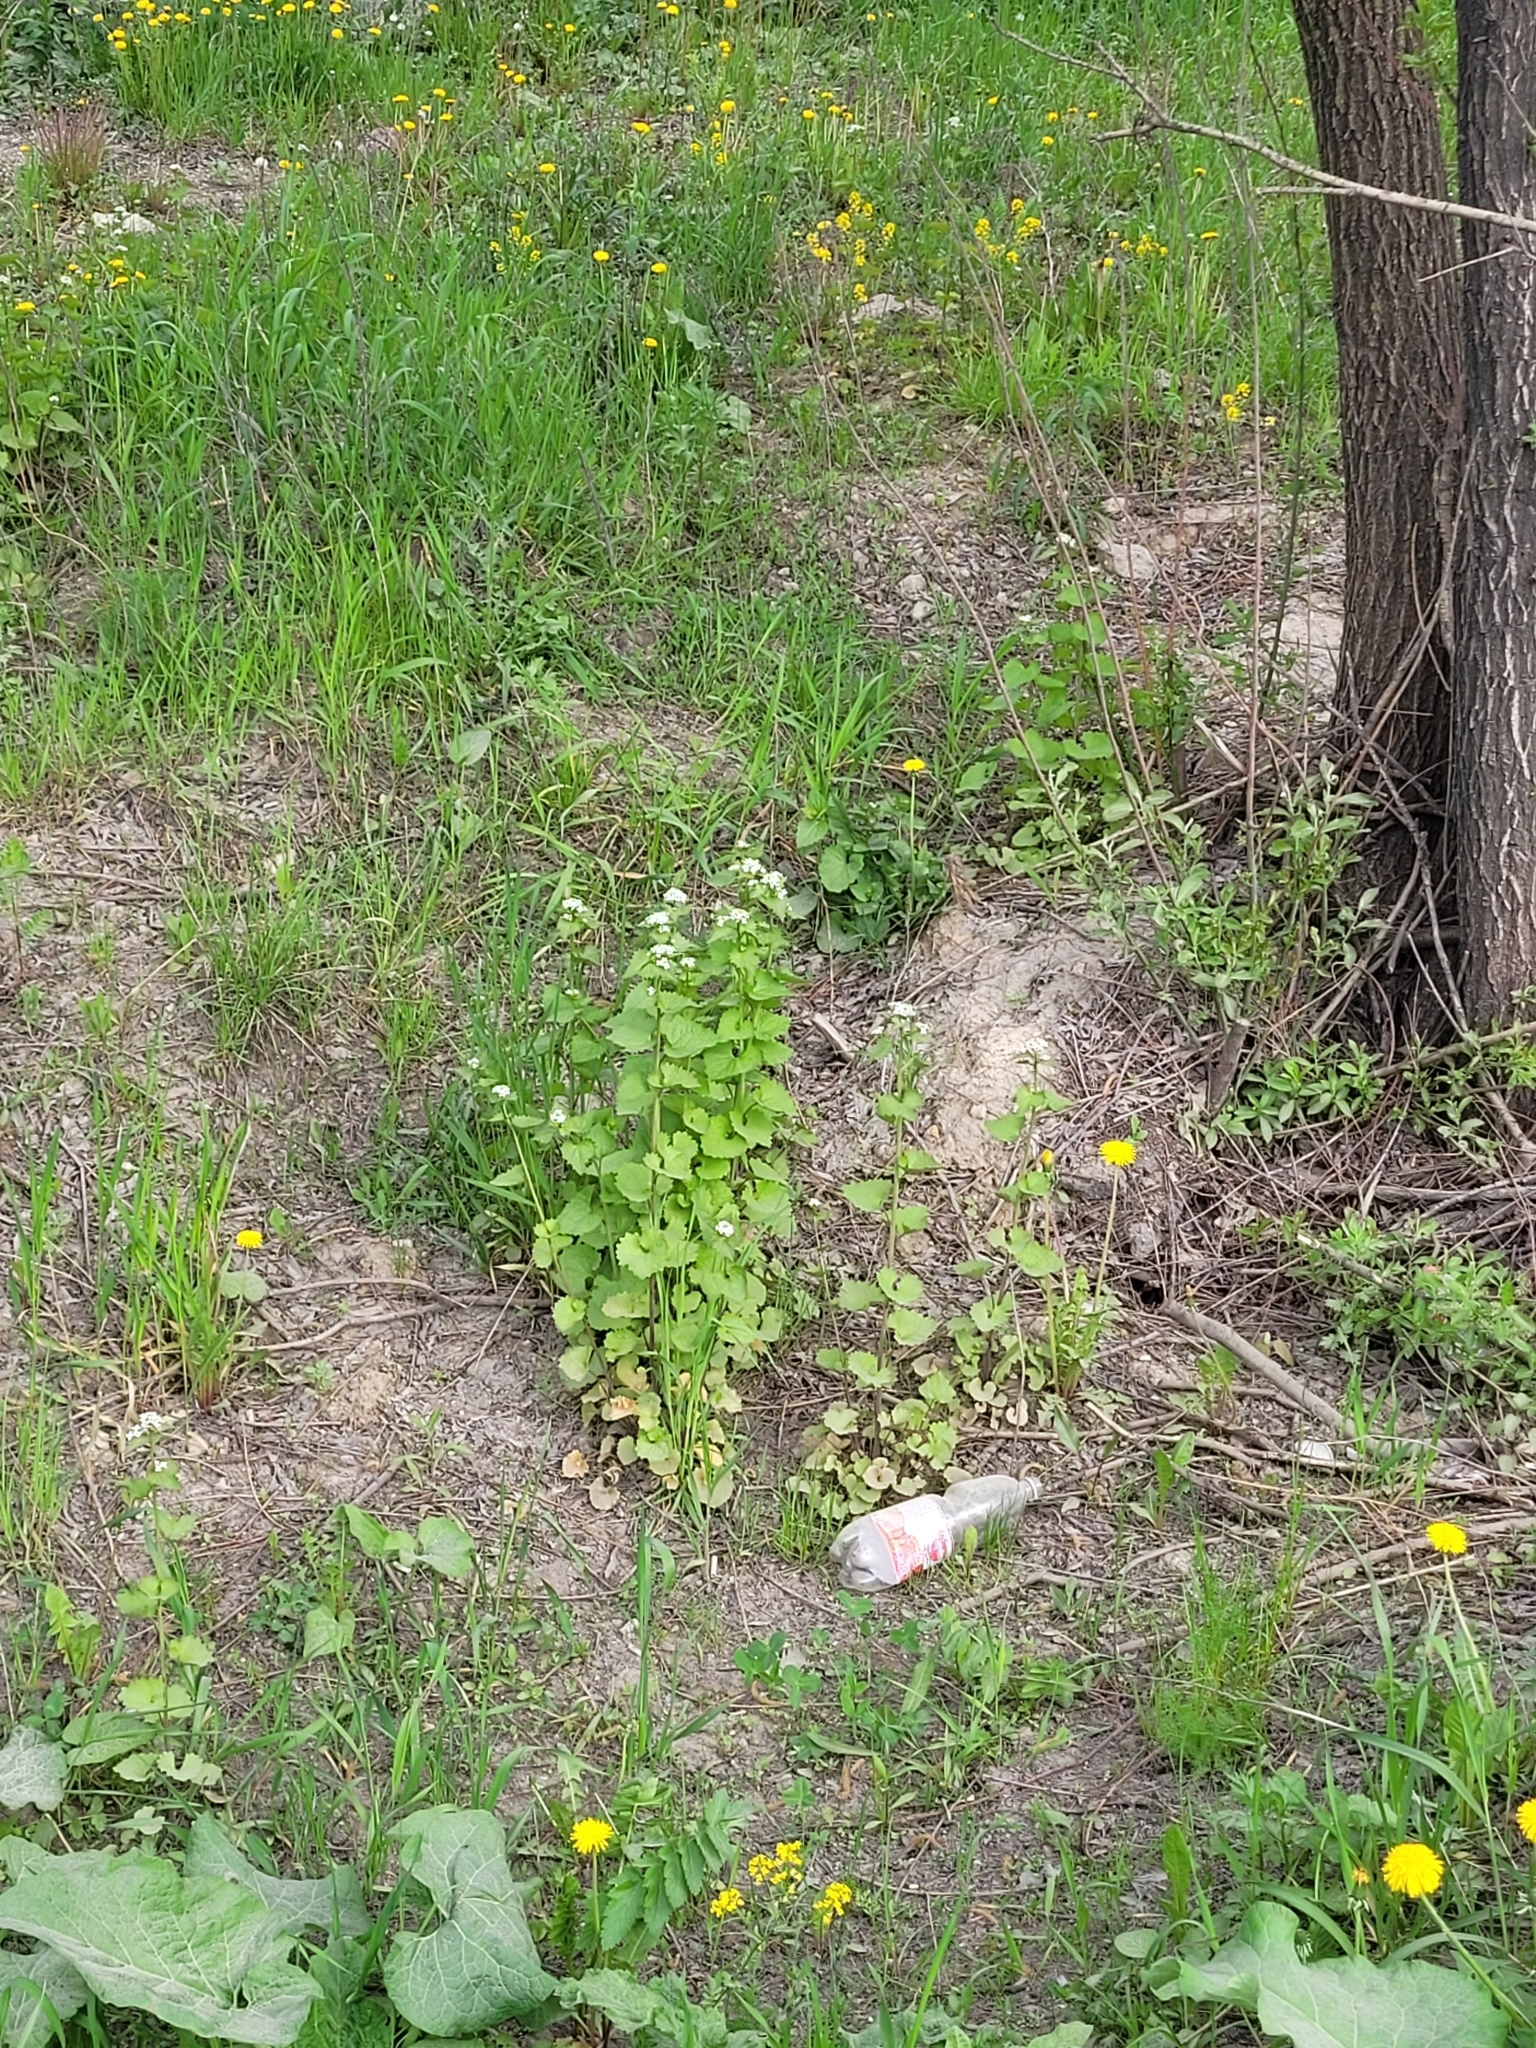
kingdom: Plantae
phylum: Tracheophyta
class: Magnoliopsida
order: Brassicales
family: Brassicaceae
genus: Alliaria
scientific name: Alliaria petiolata
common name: Garlic mustard
